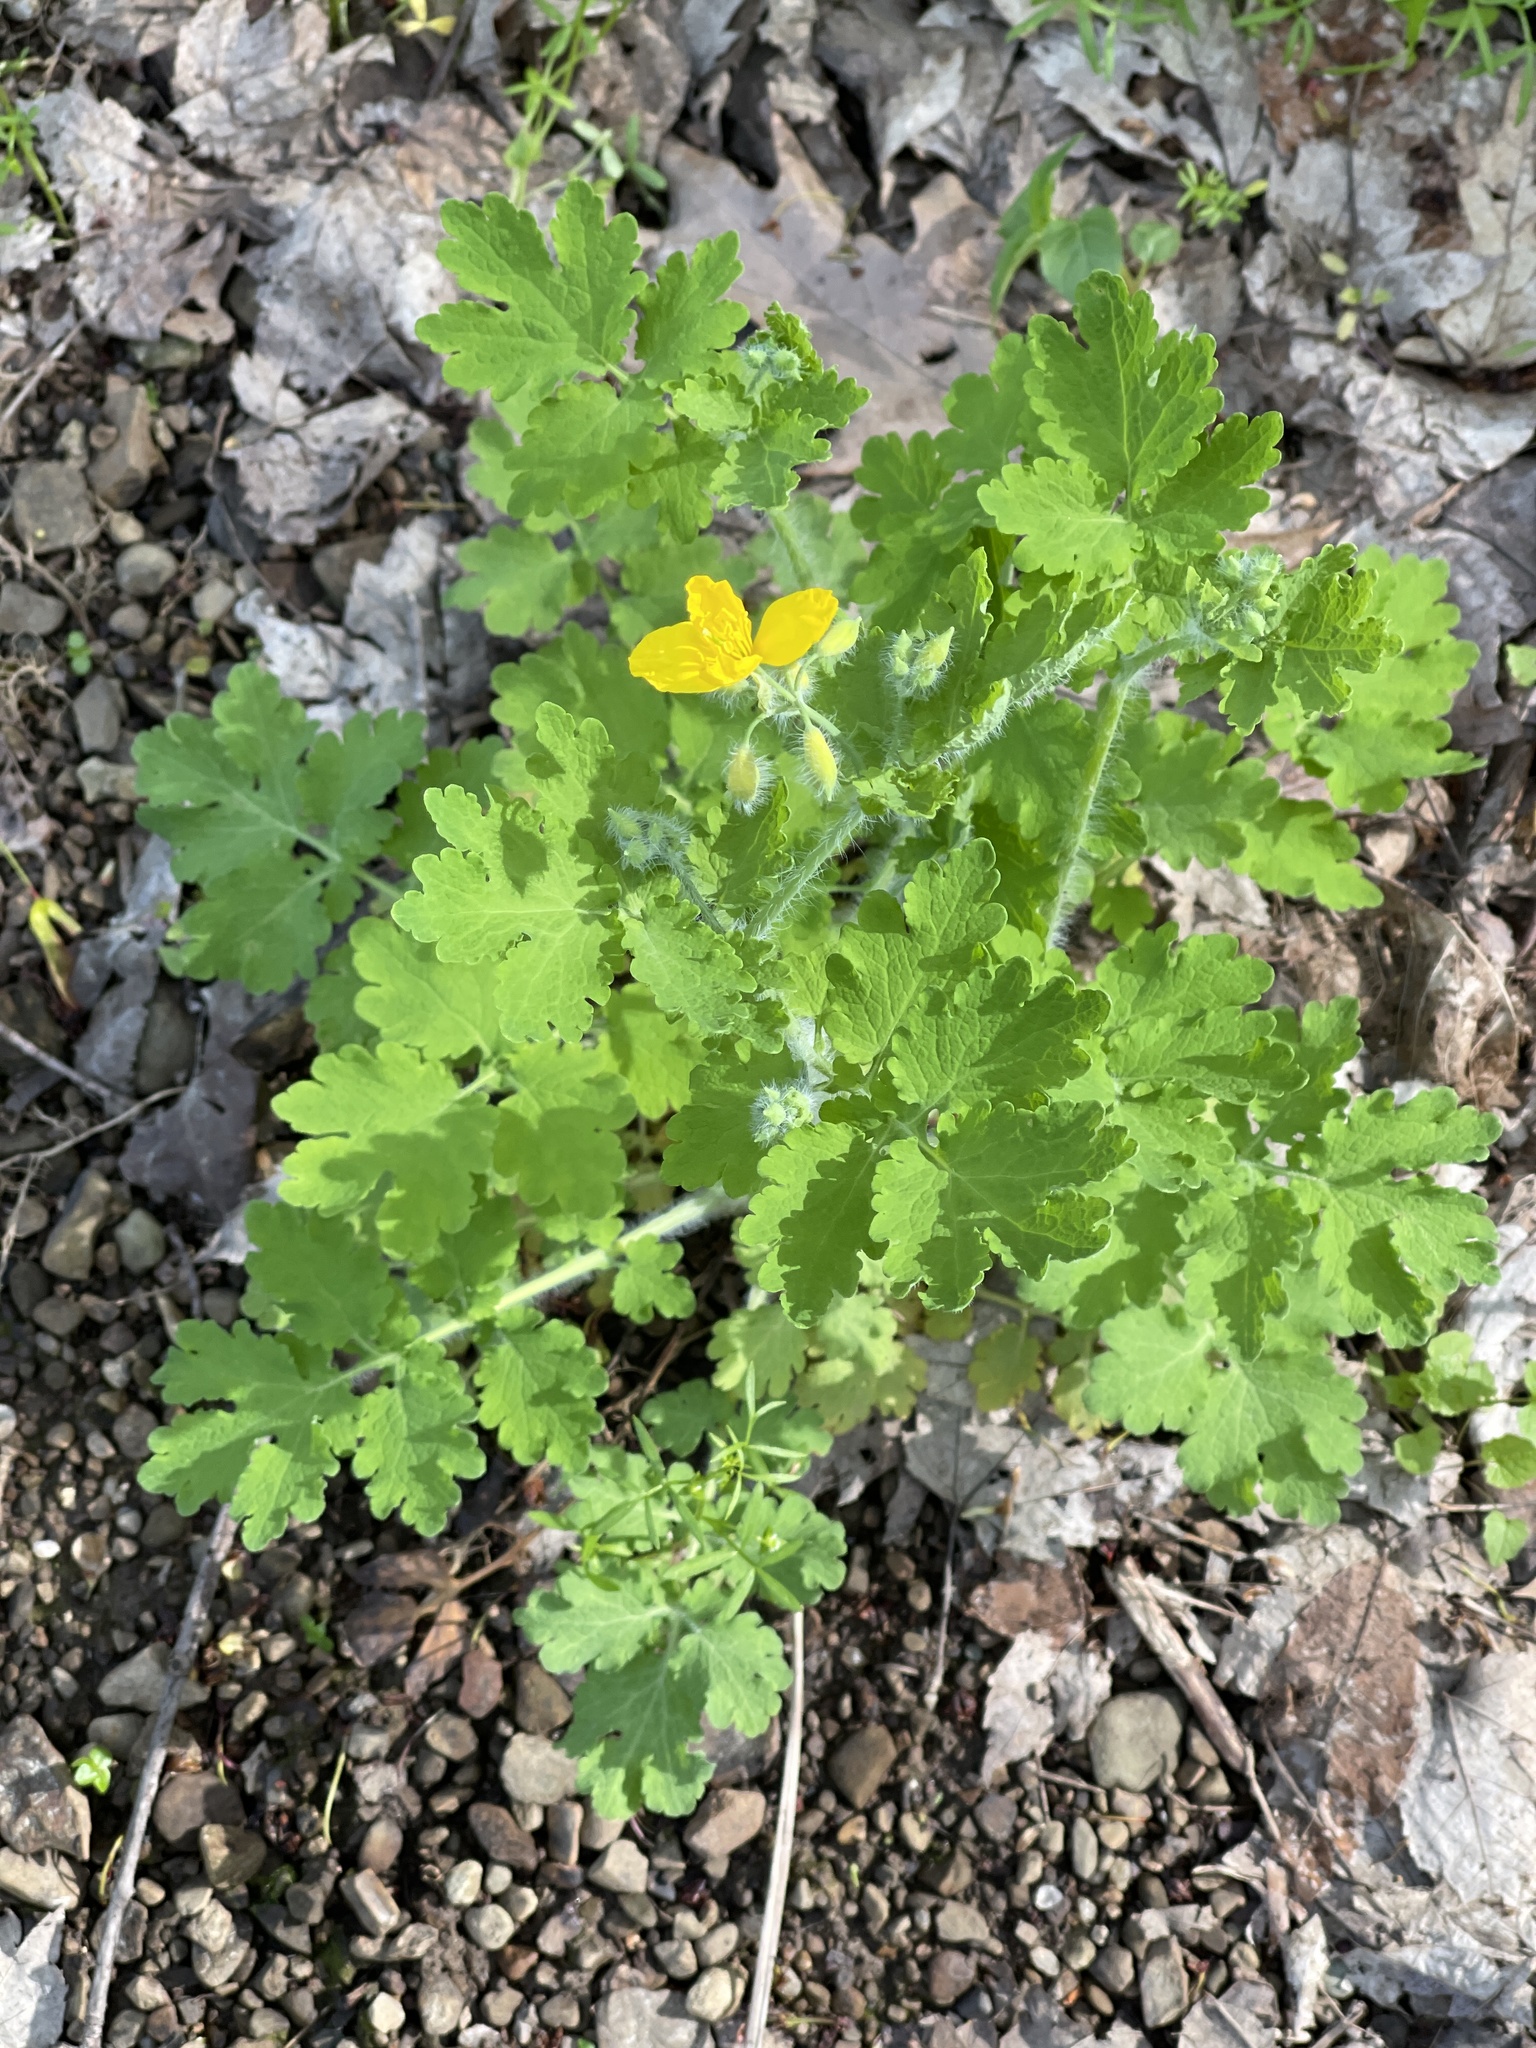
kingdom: Plantae
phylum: Tracheophyta
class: Magnoliopsida
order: Ranunculales
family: Papaveraceae
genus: Chelidonium
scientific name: Chelidonium majus
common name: Greater celandine
